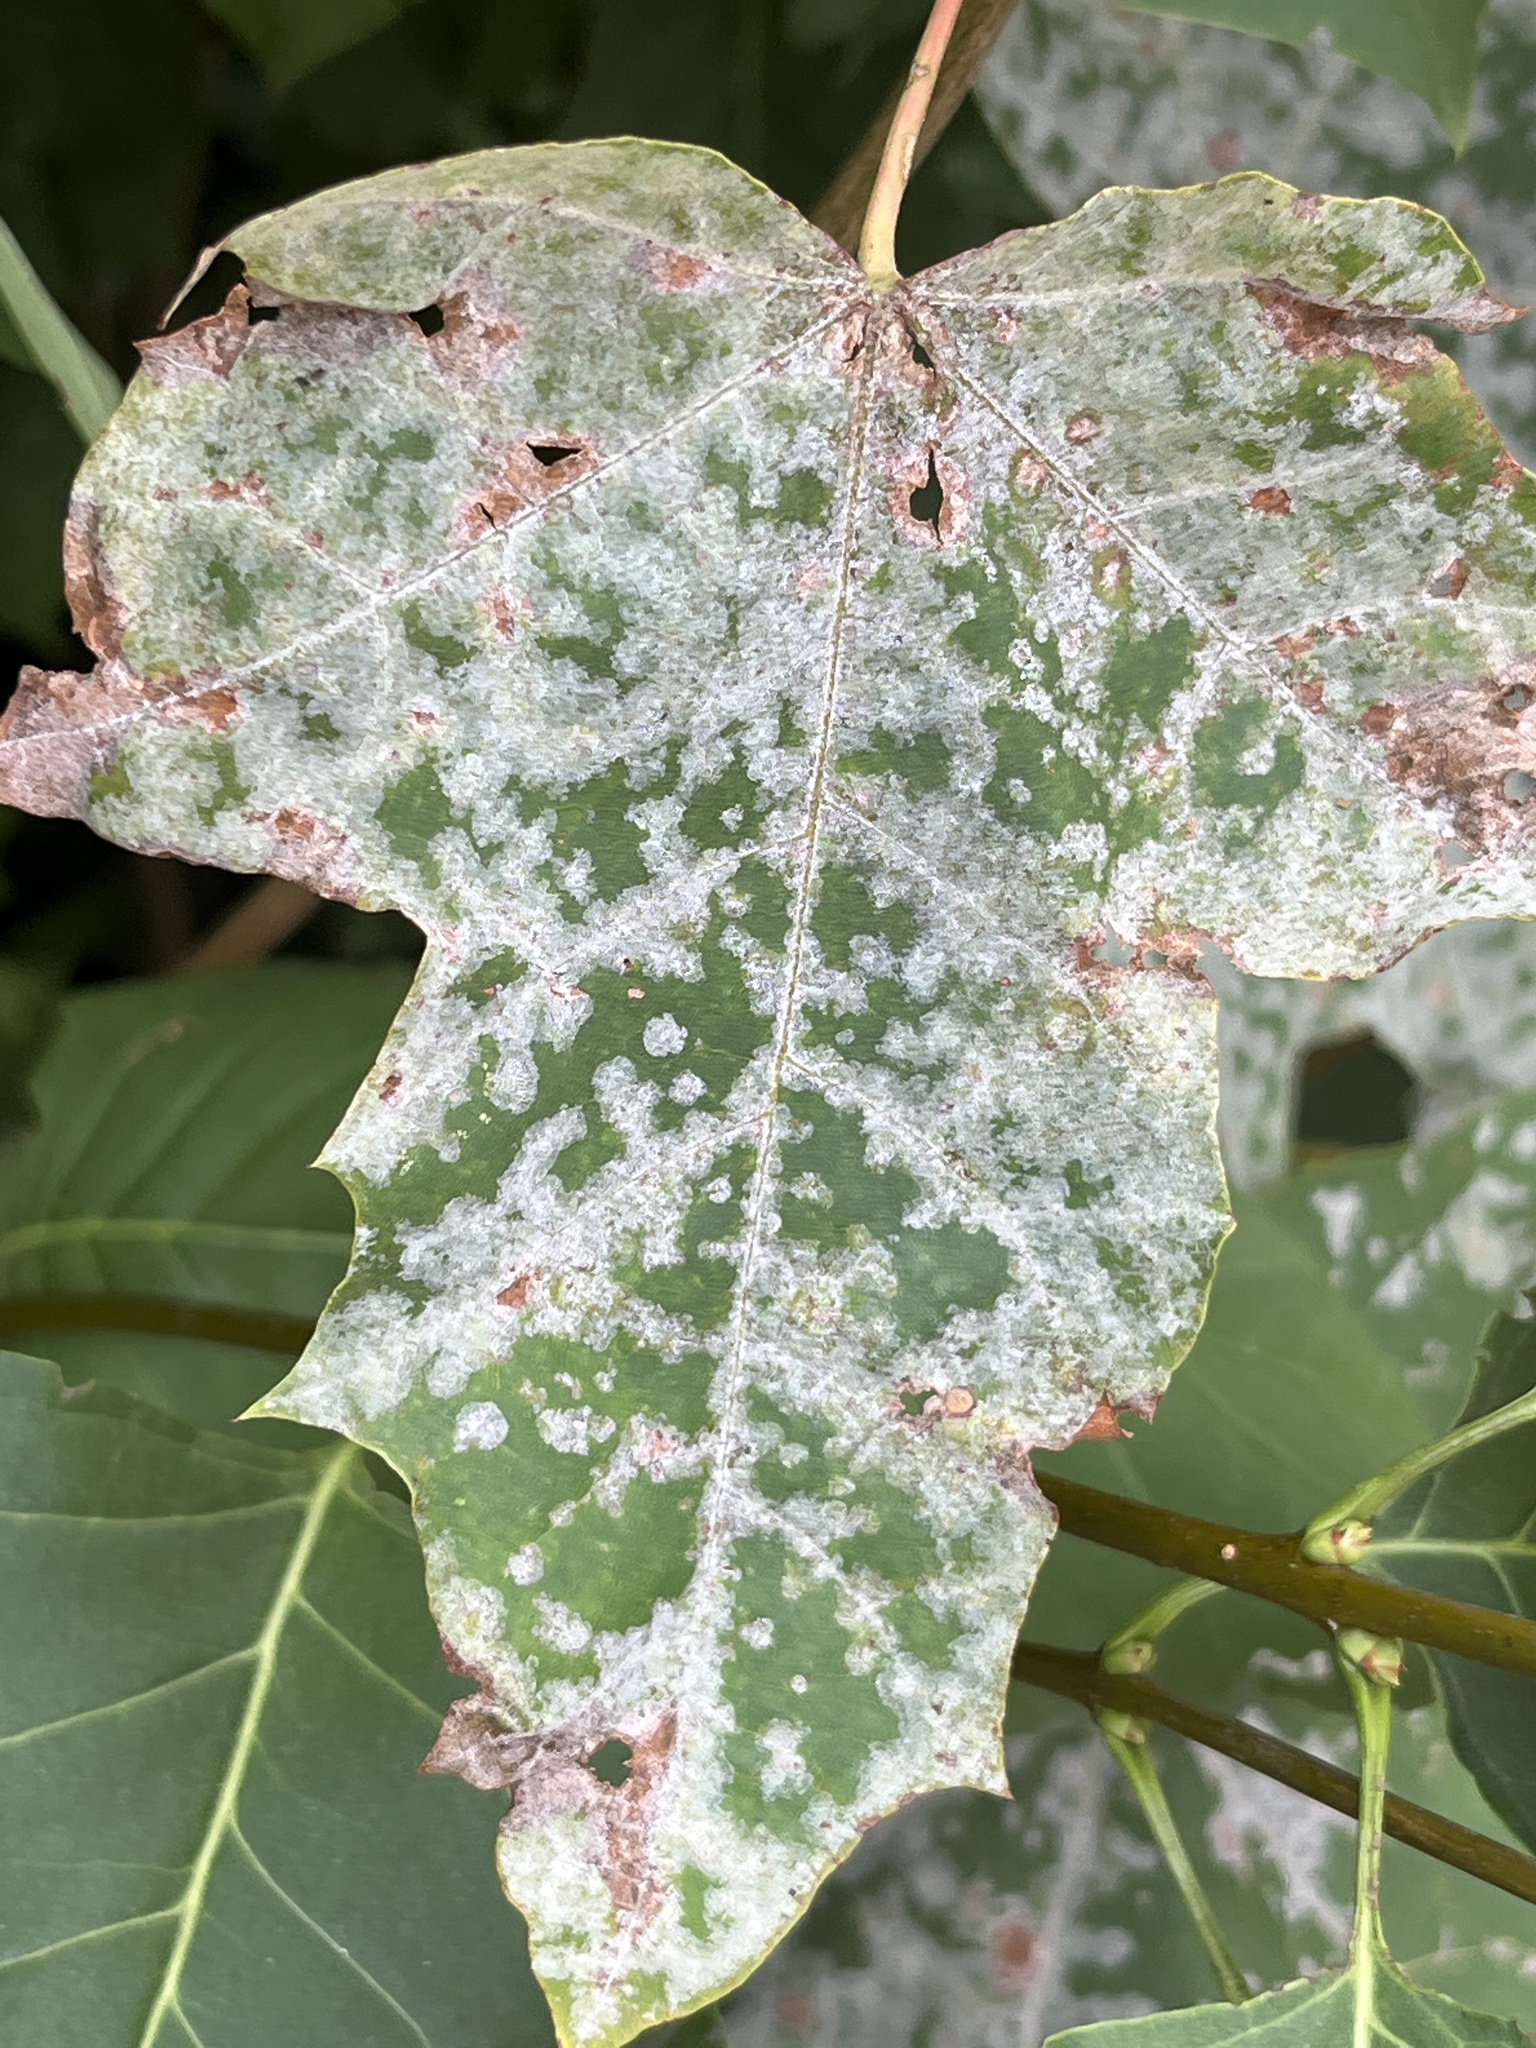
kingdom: Fungi
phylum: Ascomycota
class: Leotiomycetes
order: Helotiales
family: Erysiphaceae
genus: Sawadaea
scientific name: Sawadaea tulasnei
